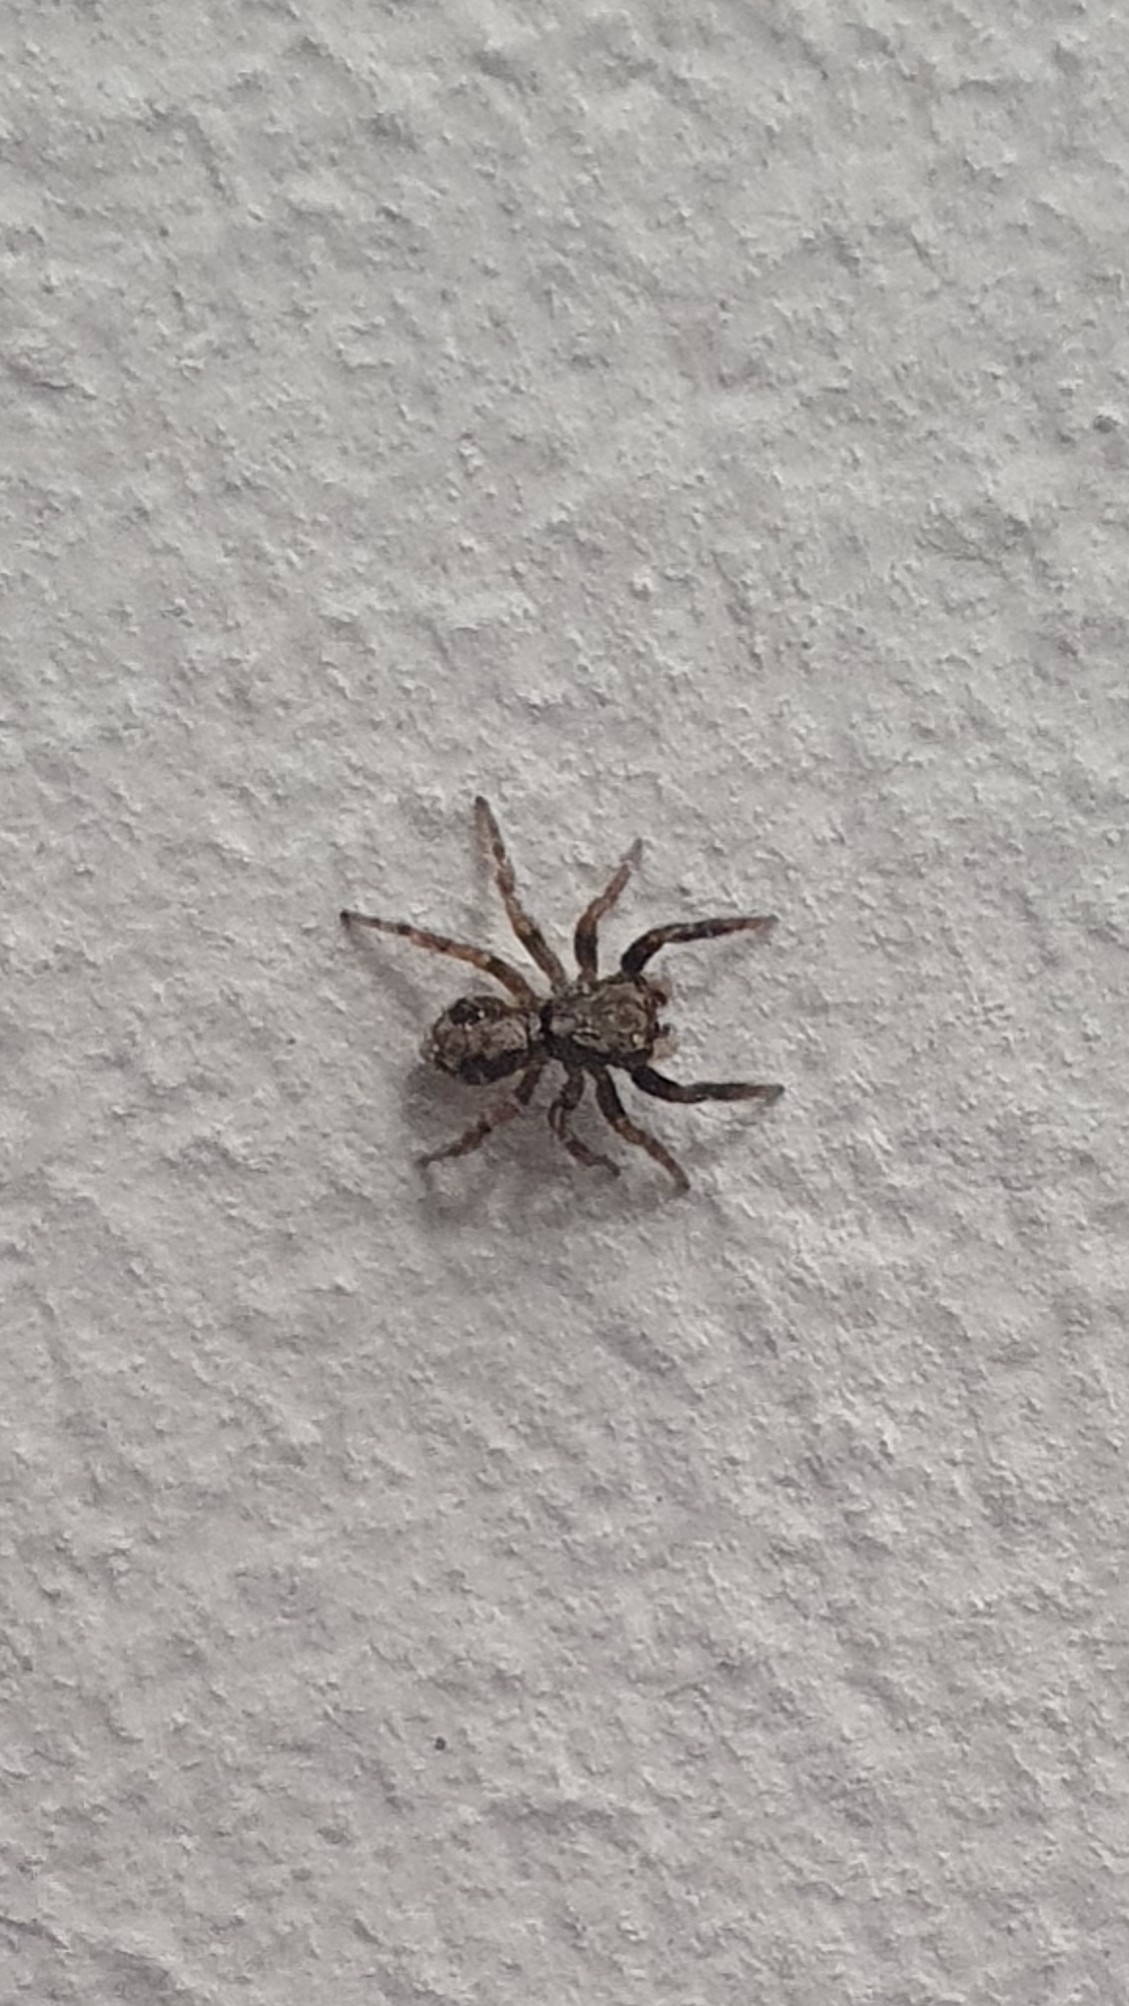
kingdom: Animalia
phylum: Arthropoda
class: Arachnida
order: Araneae
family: Salticidae
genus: Pseudeuophrys
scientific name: Pseudeuophrys lanigera
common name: Jumping spider
